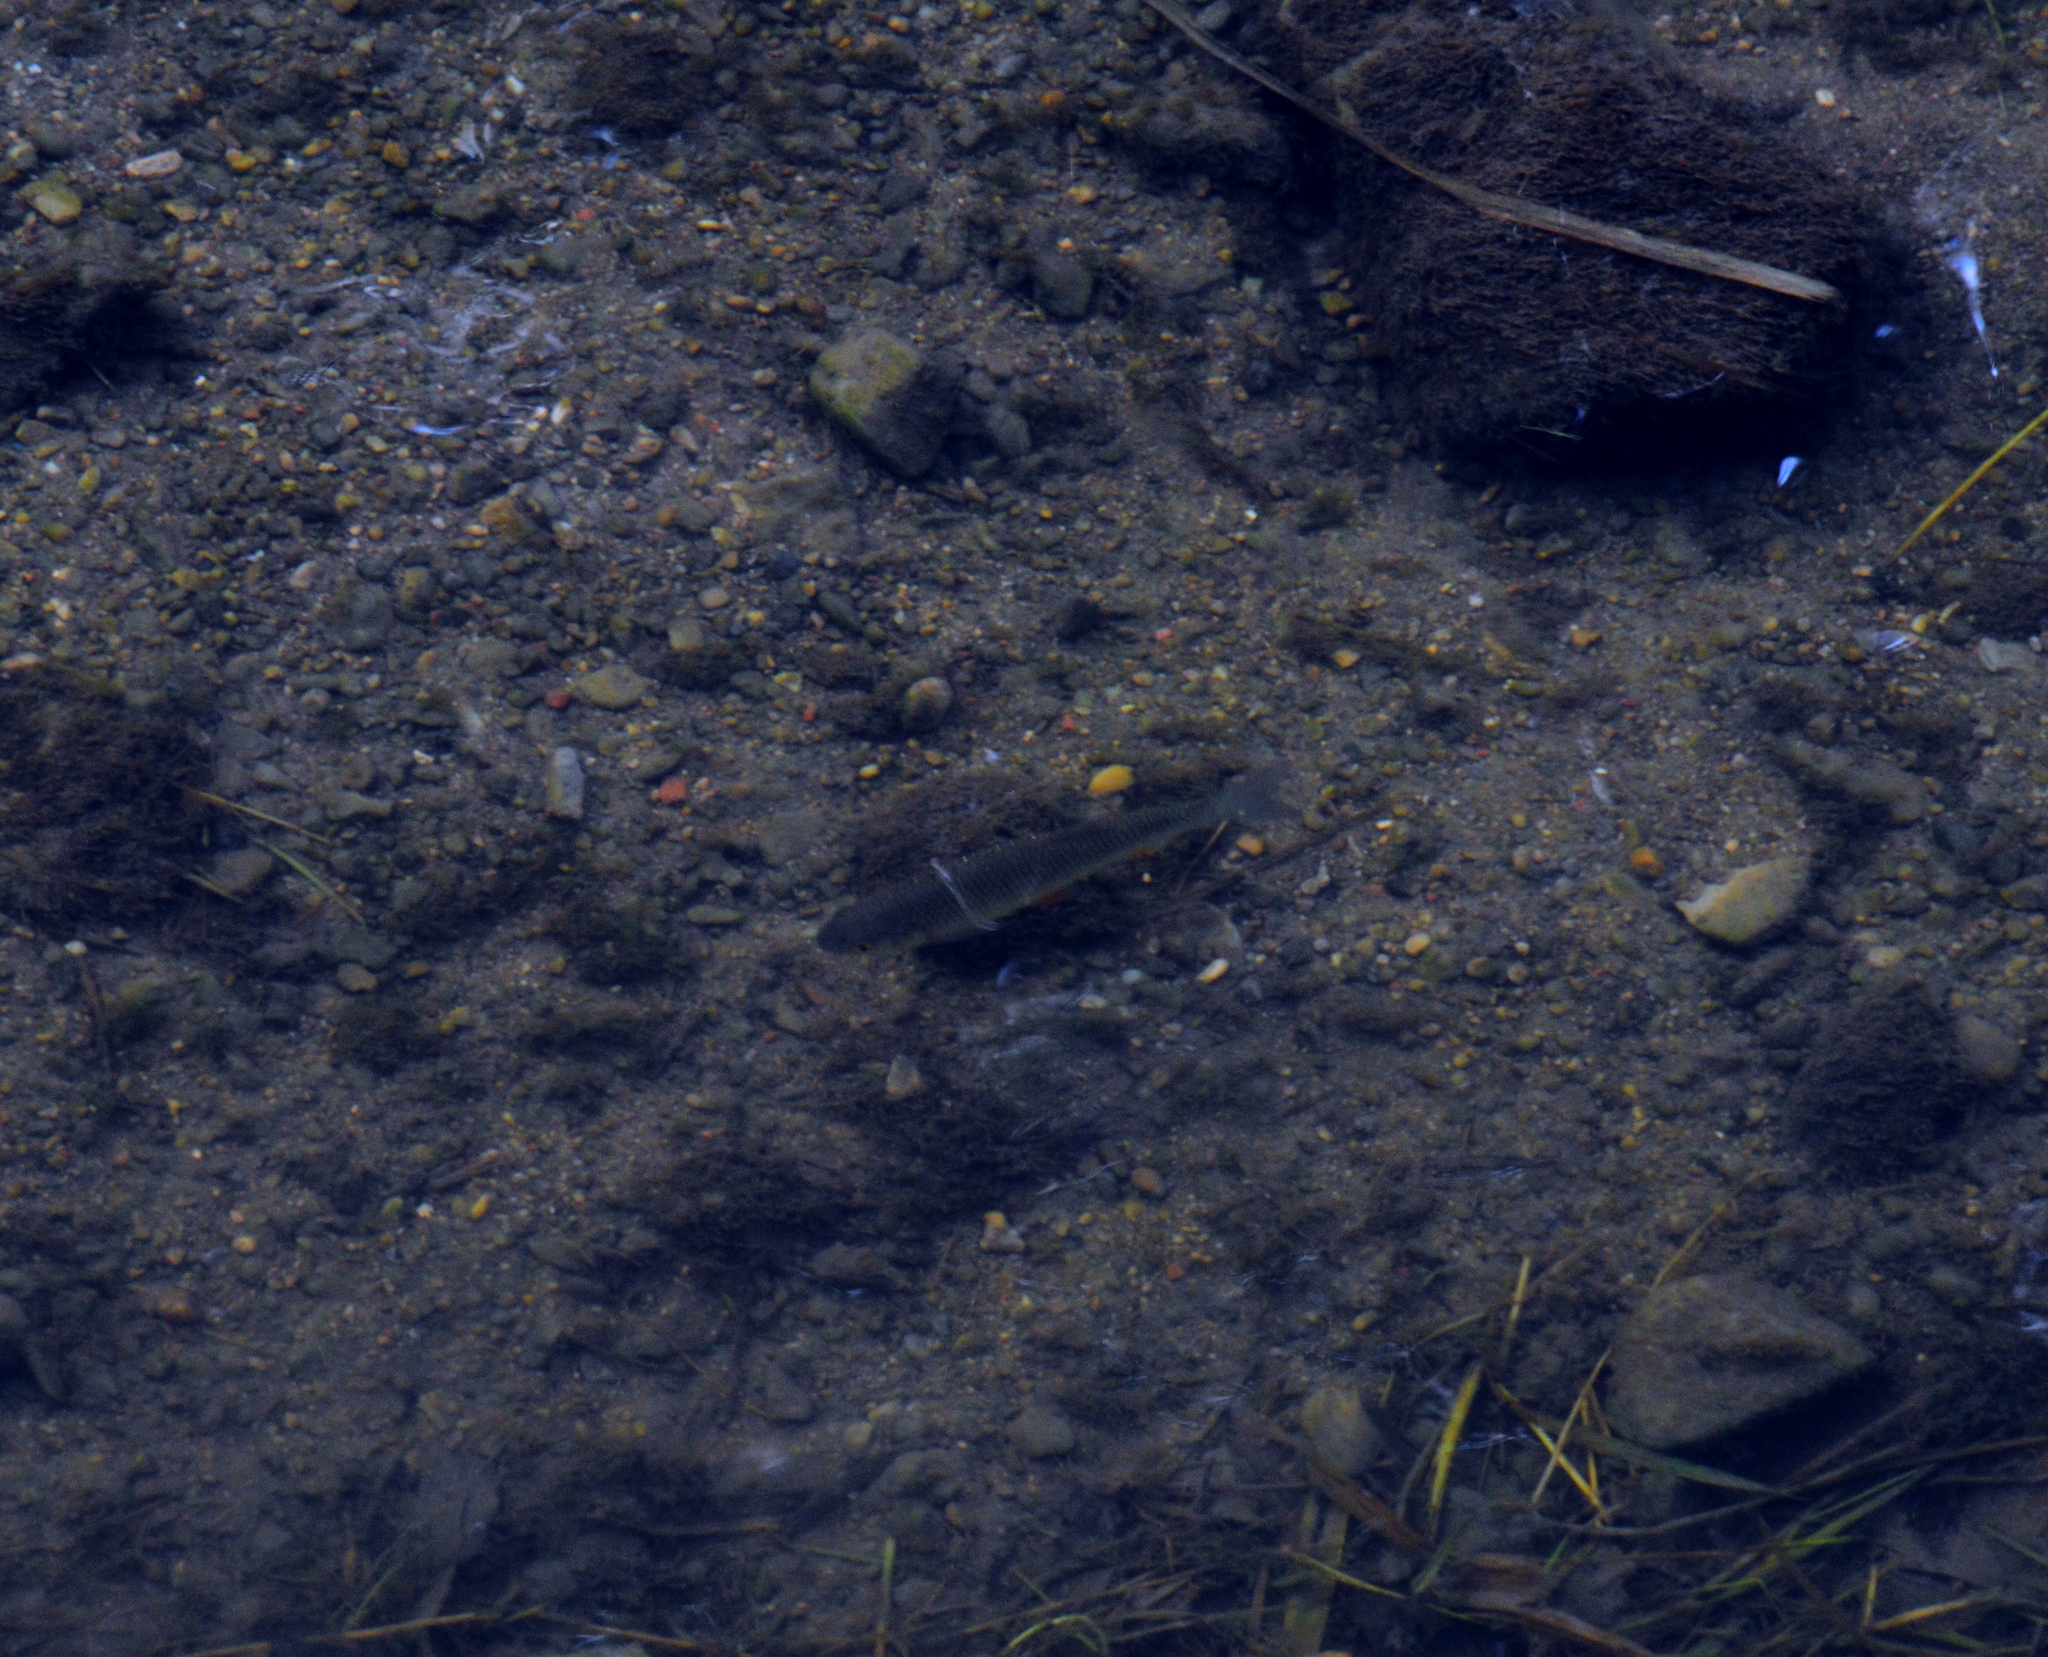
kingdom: Animalia
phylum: Chordata
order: Cypriniformes
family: Cyprinidae
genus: Squalius
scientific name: Squalius cephalus
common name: Chub
